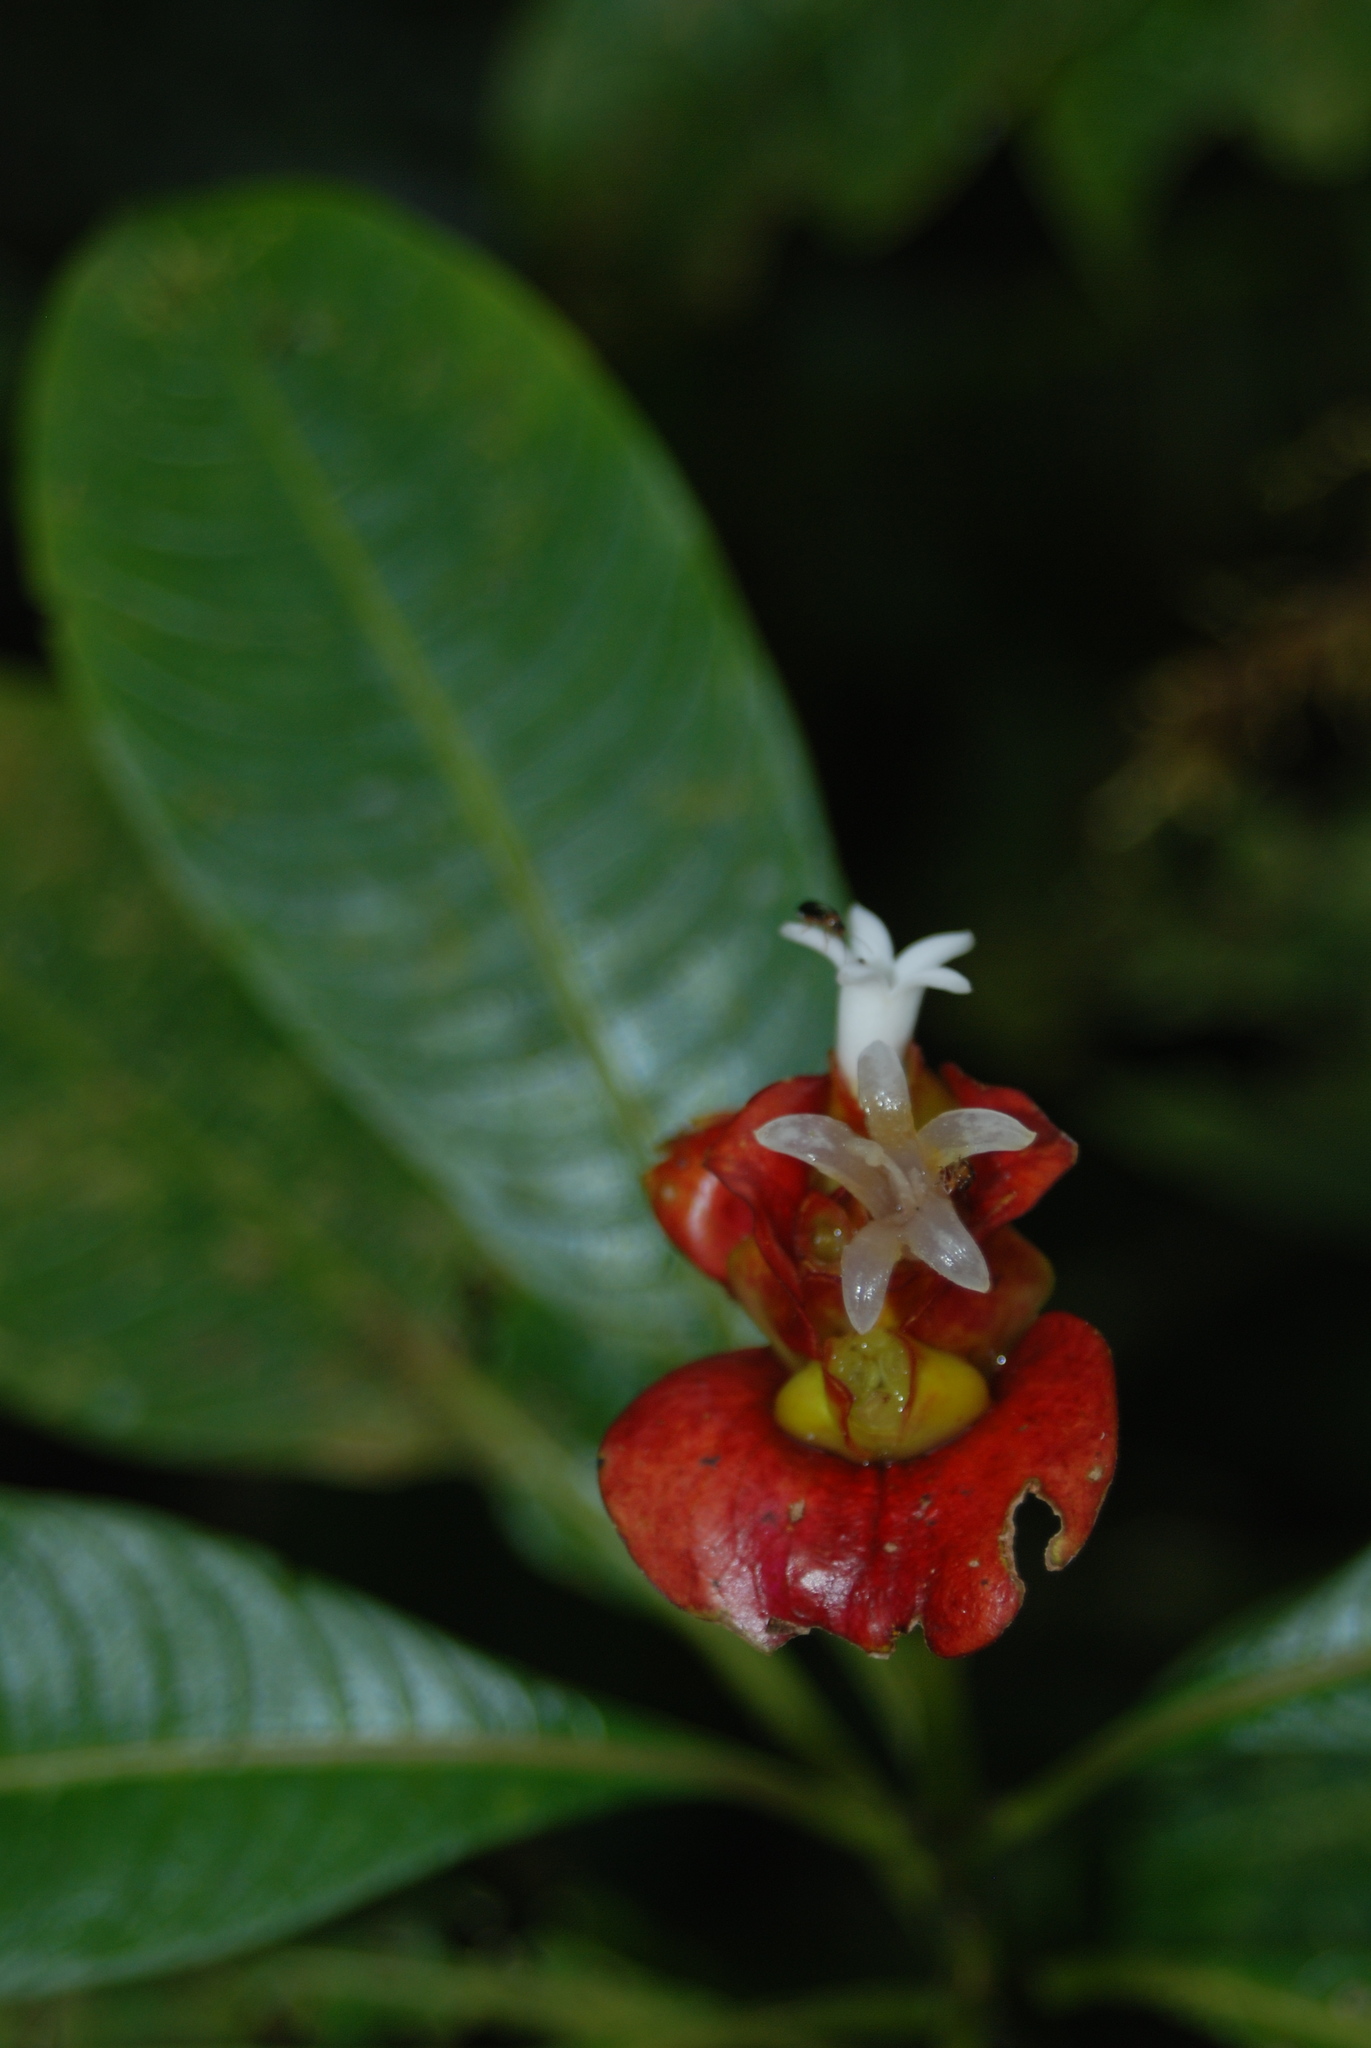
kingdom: Plantae
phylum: Tracheophyta
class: Magnoliopsida
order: Gentianales
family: Rubiaceae
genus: Palicourea
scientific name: Palicourea elata
